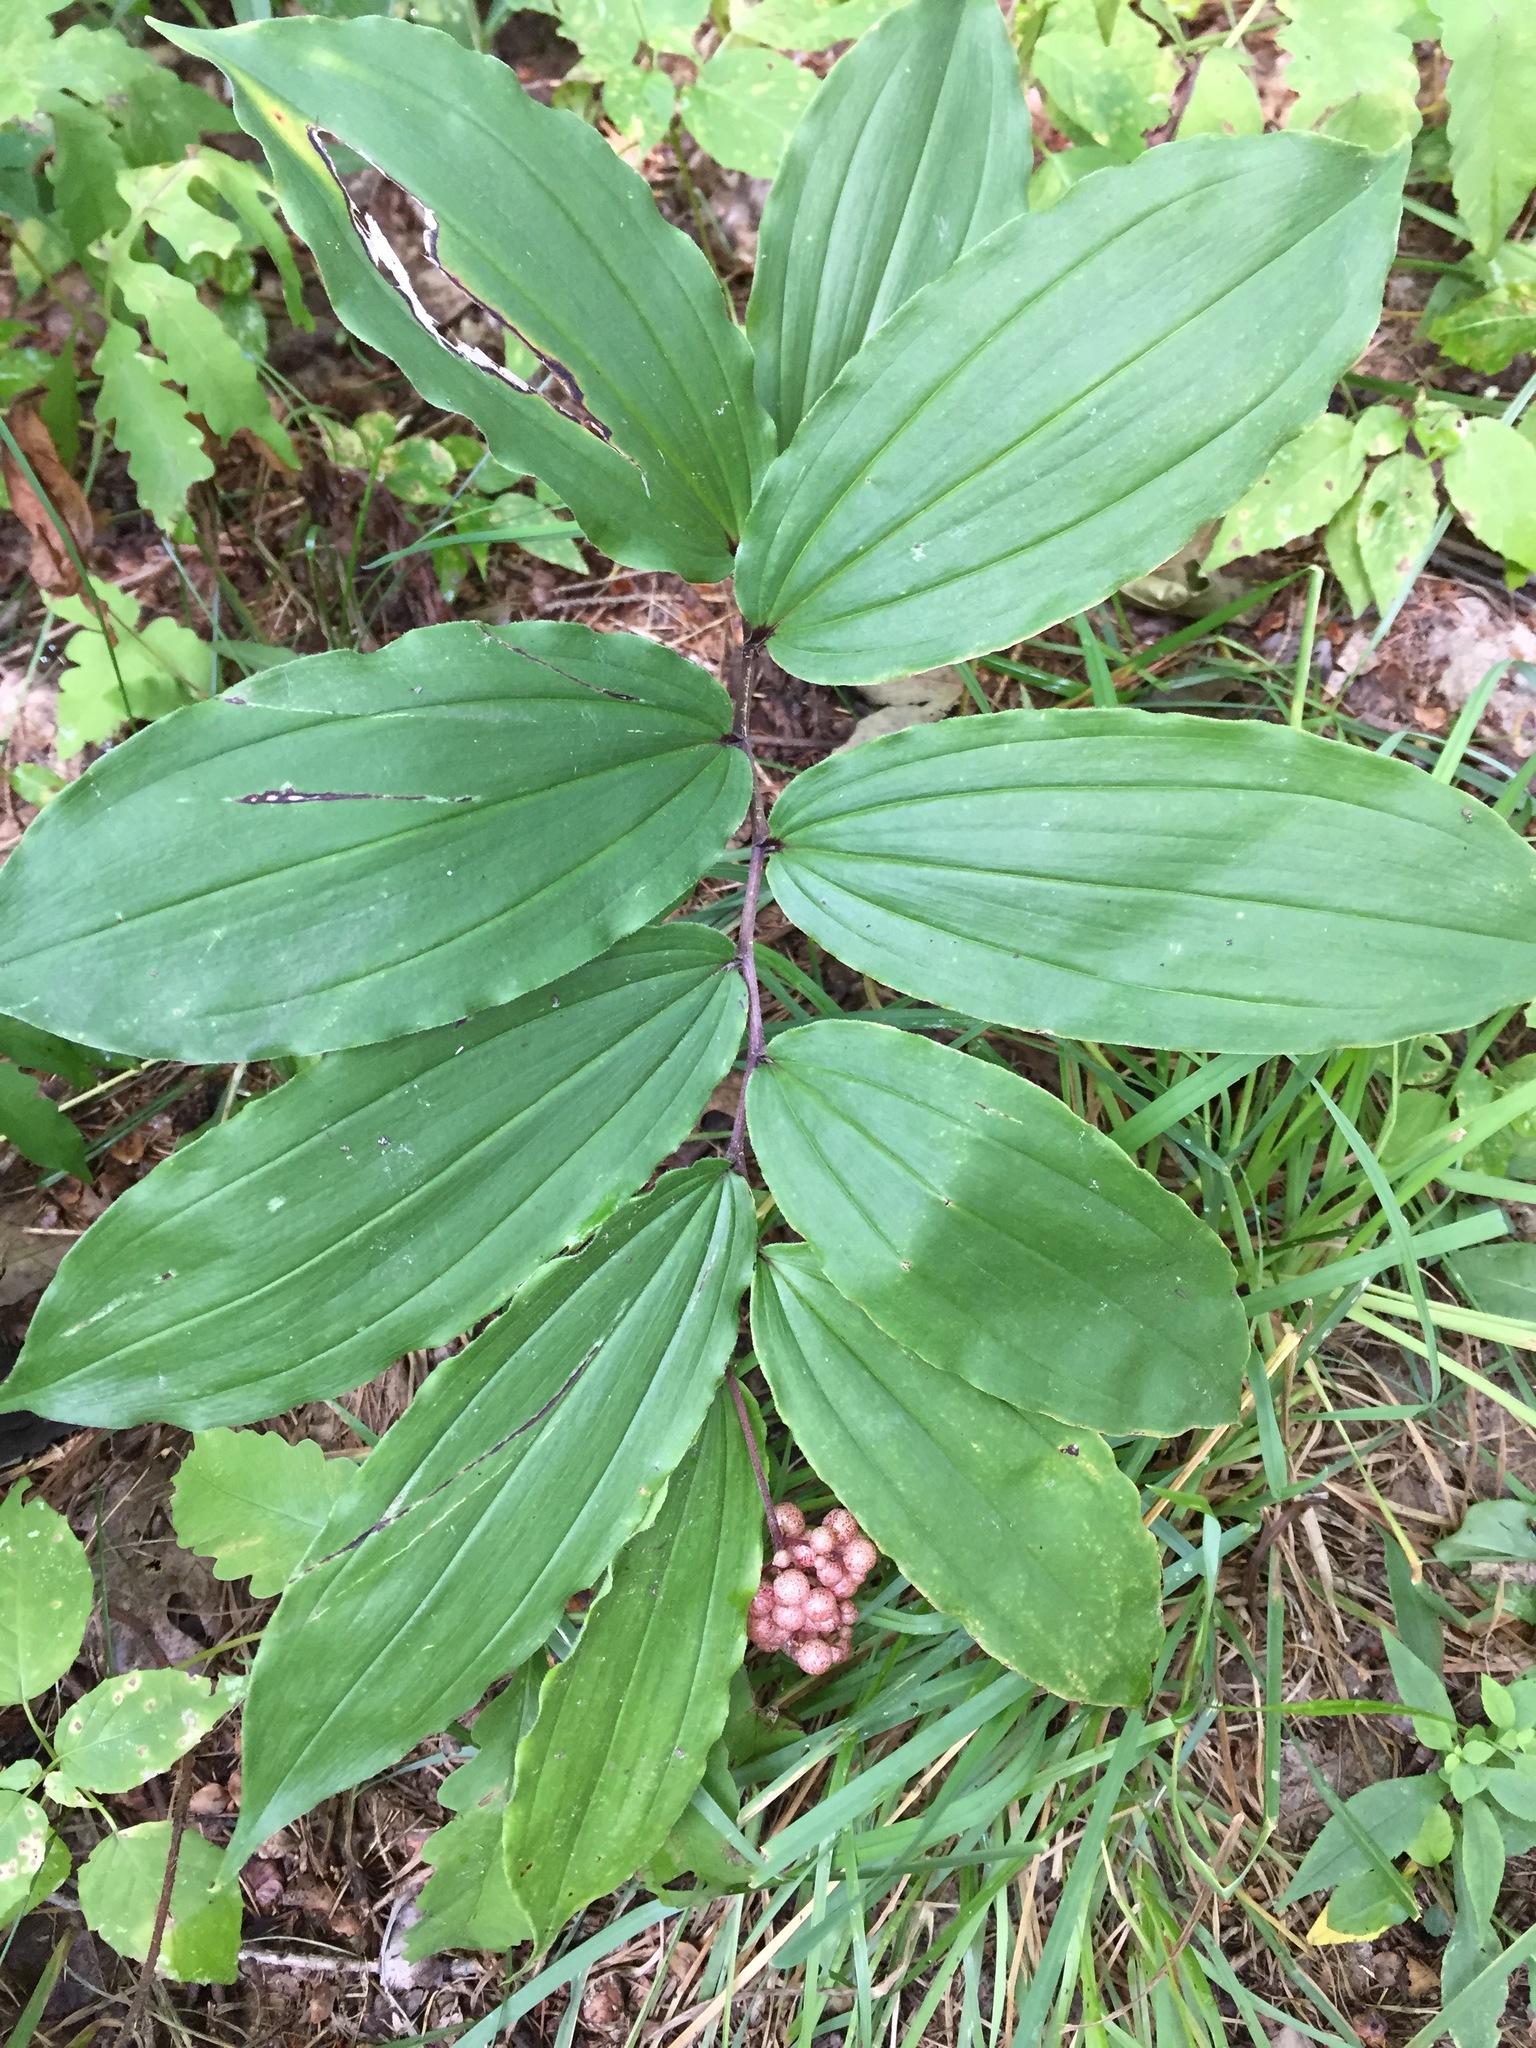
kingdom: Plantae
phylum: Tracheophyta
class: Liliopsida
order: Asparagales
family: Asparagaceae
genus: Maianthemum
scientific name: Maianthemum racemosum
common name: False spikenard
